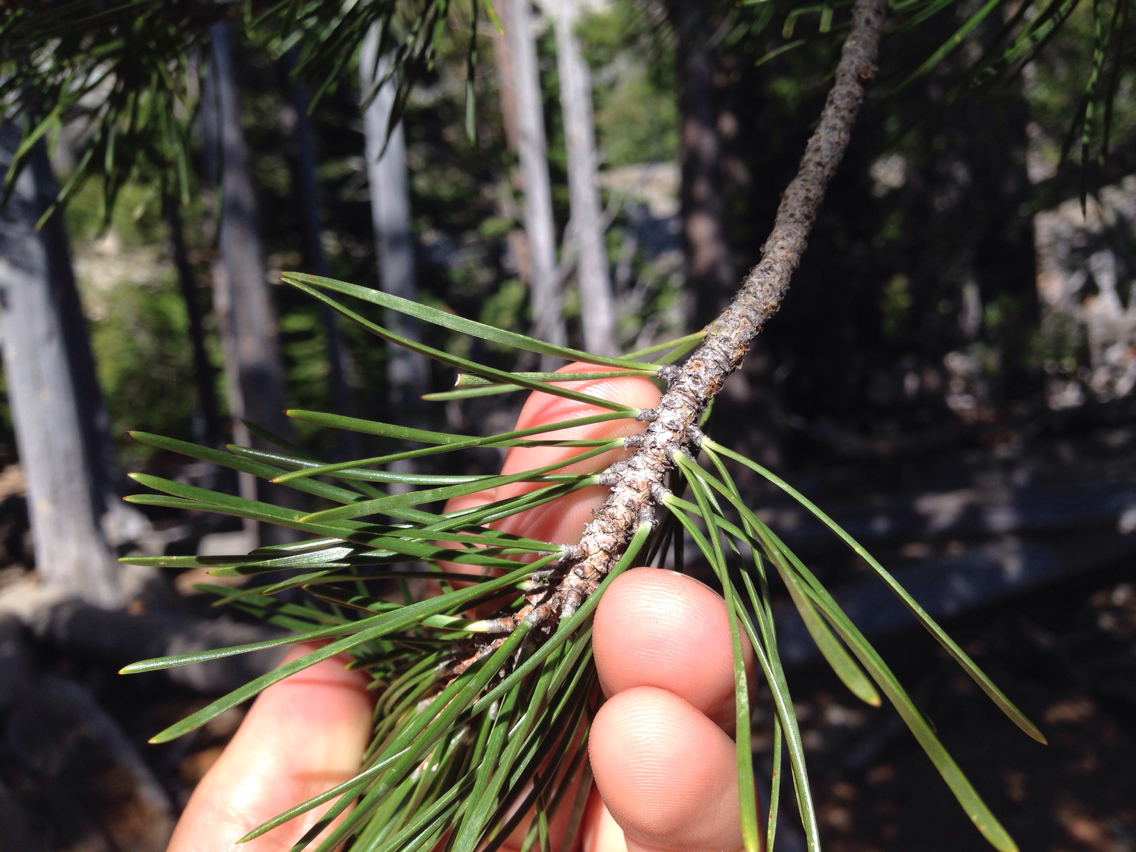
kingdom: Plantae
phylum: Tracheophyta
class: Pinopsida
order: Pinales
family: Pinaceae
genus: Pinus
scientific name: Pinus contorta
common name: Lodgepole pine
